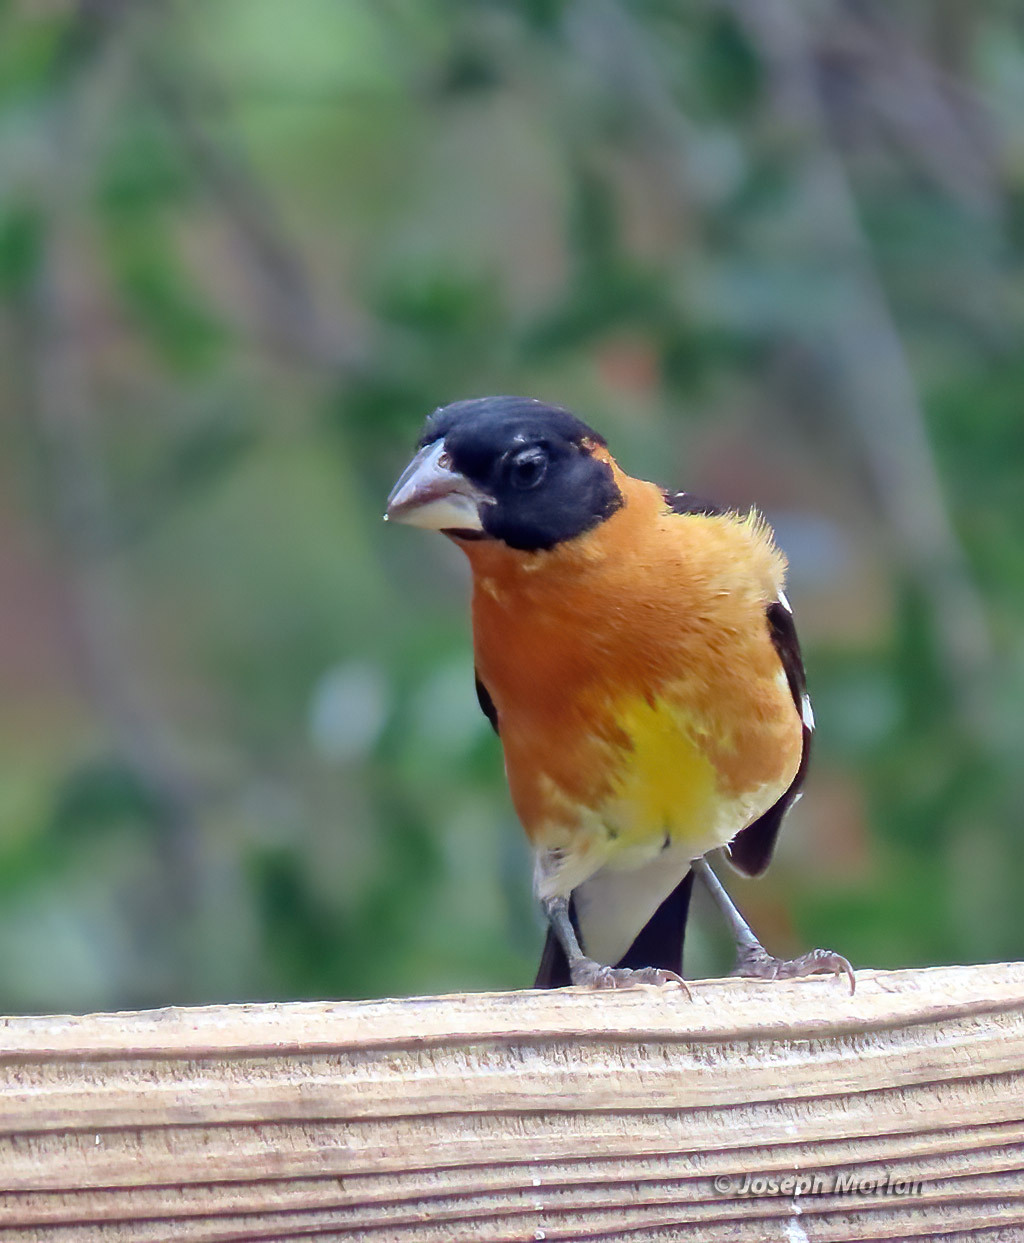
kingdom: Animalia
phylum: Chordata
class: Aves
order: Passeriformes
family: Cardinalidae
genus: Pheucticus
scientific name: Pheucticus melanocephalus
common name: Black-headed grosbeak
